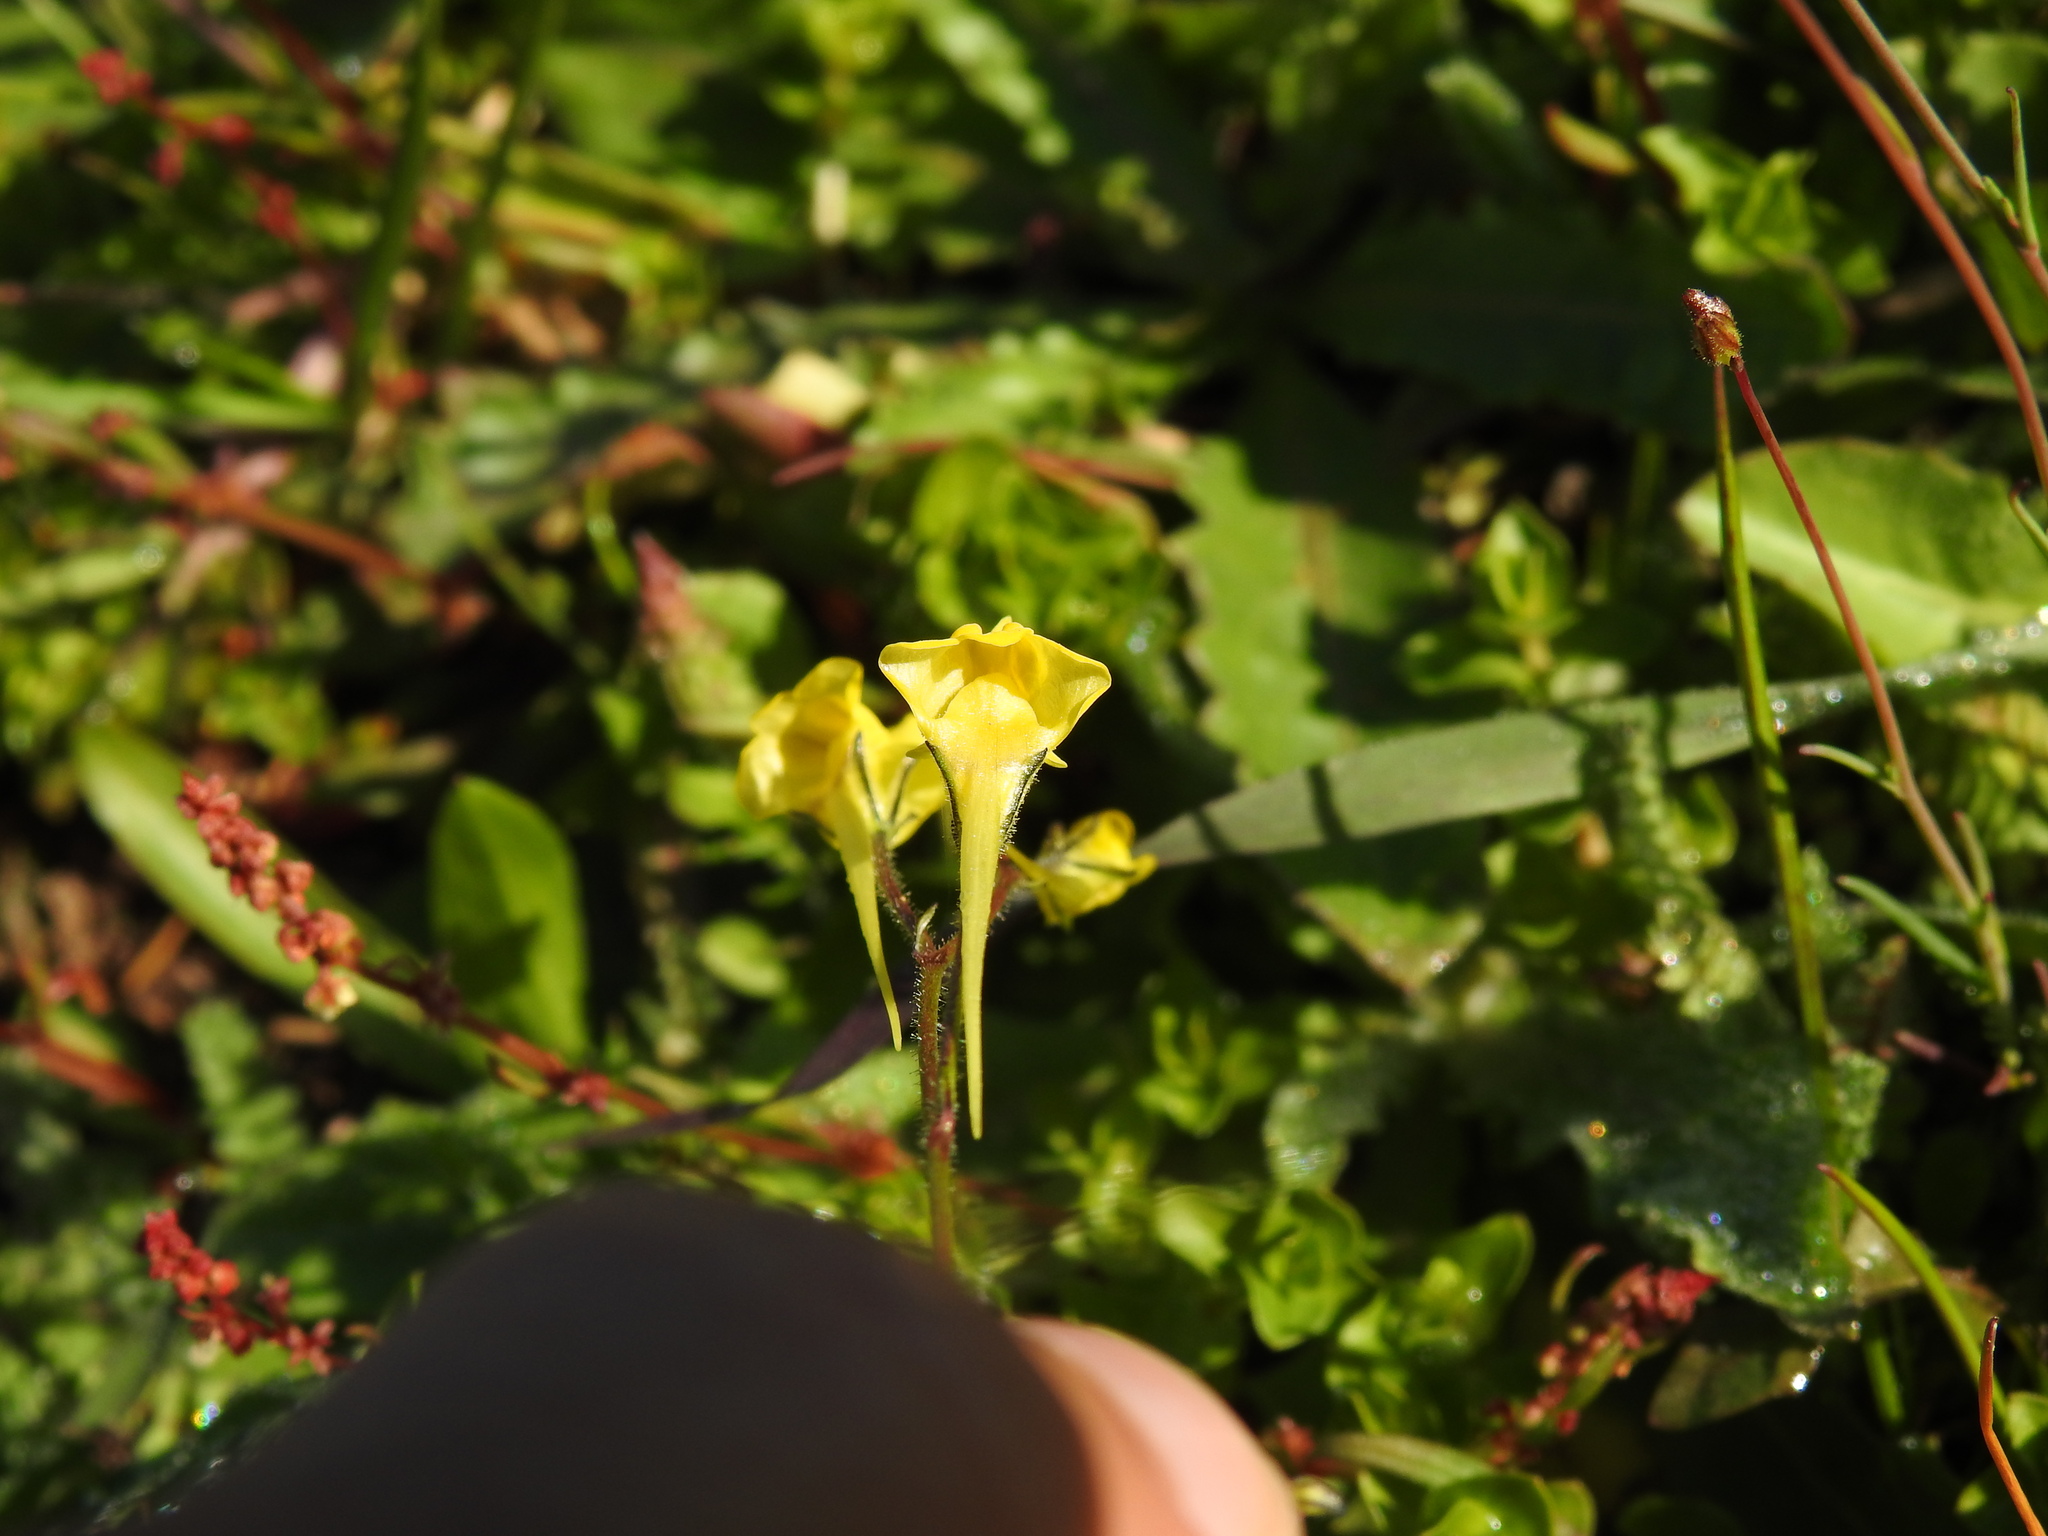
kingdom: Plantae
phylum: Tracheophyta
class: Magnoliopsida
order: Lamiales
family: Plantaginaceae
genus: Linaria
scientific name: Linaria spartea
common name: Ballast toadflax
